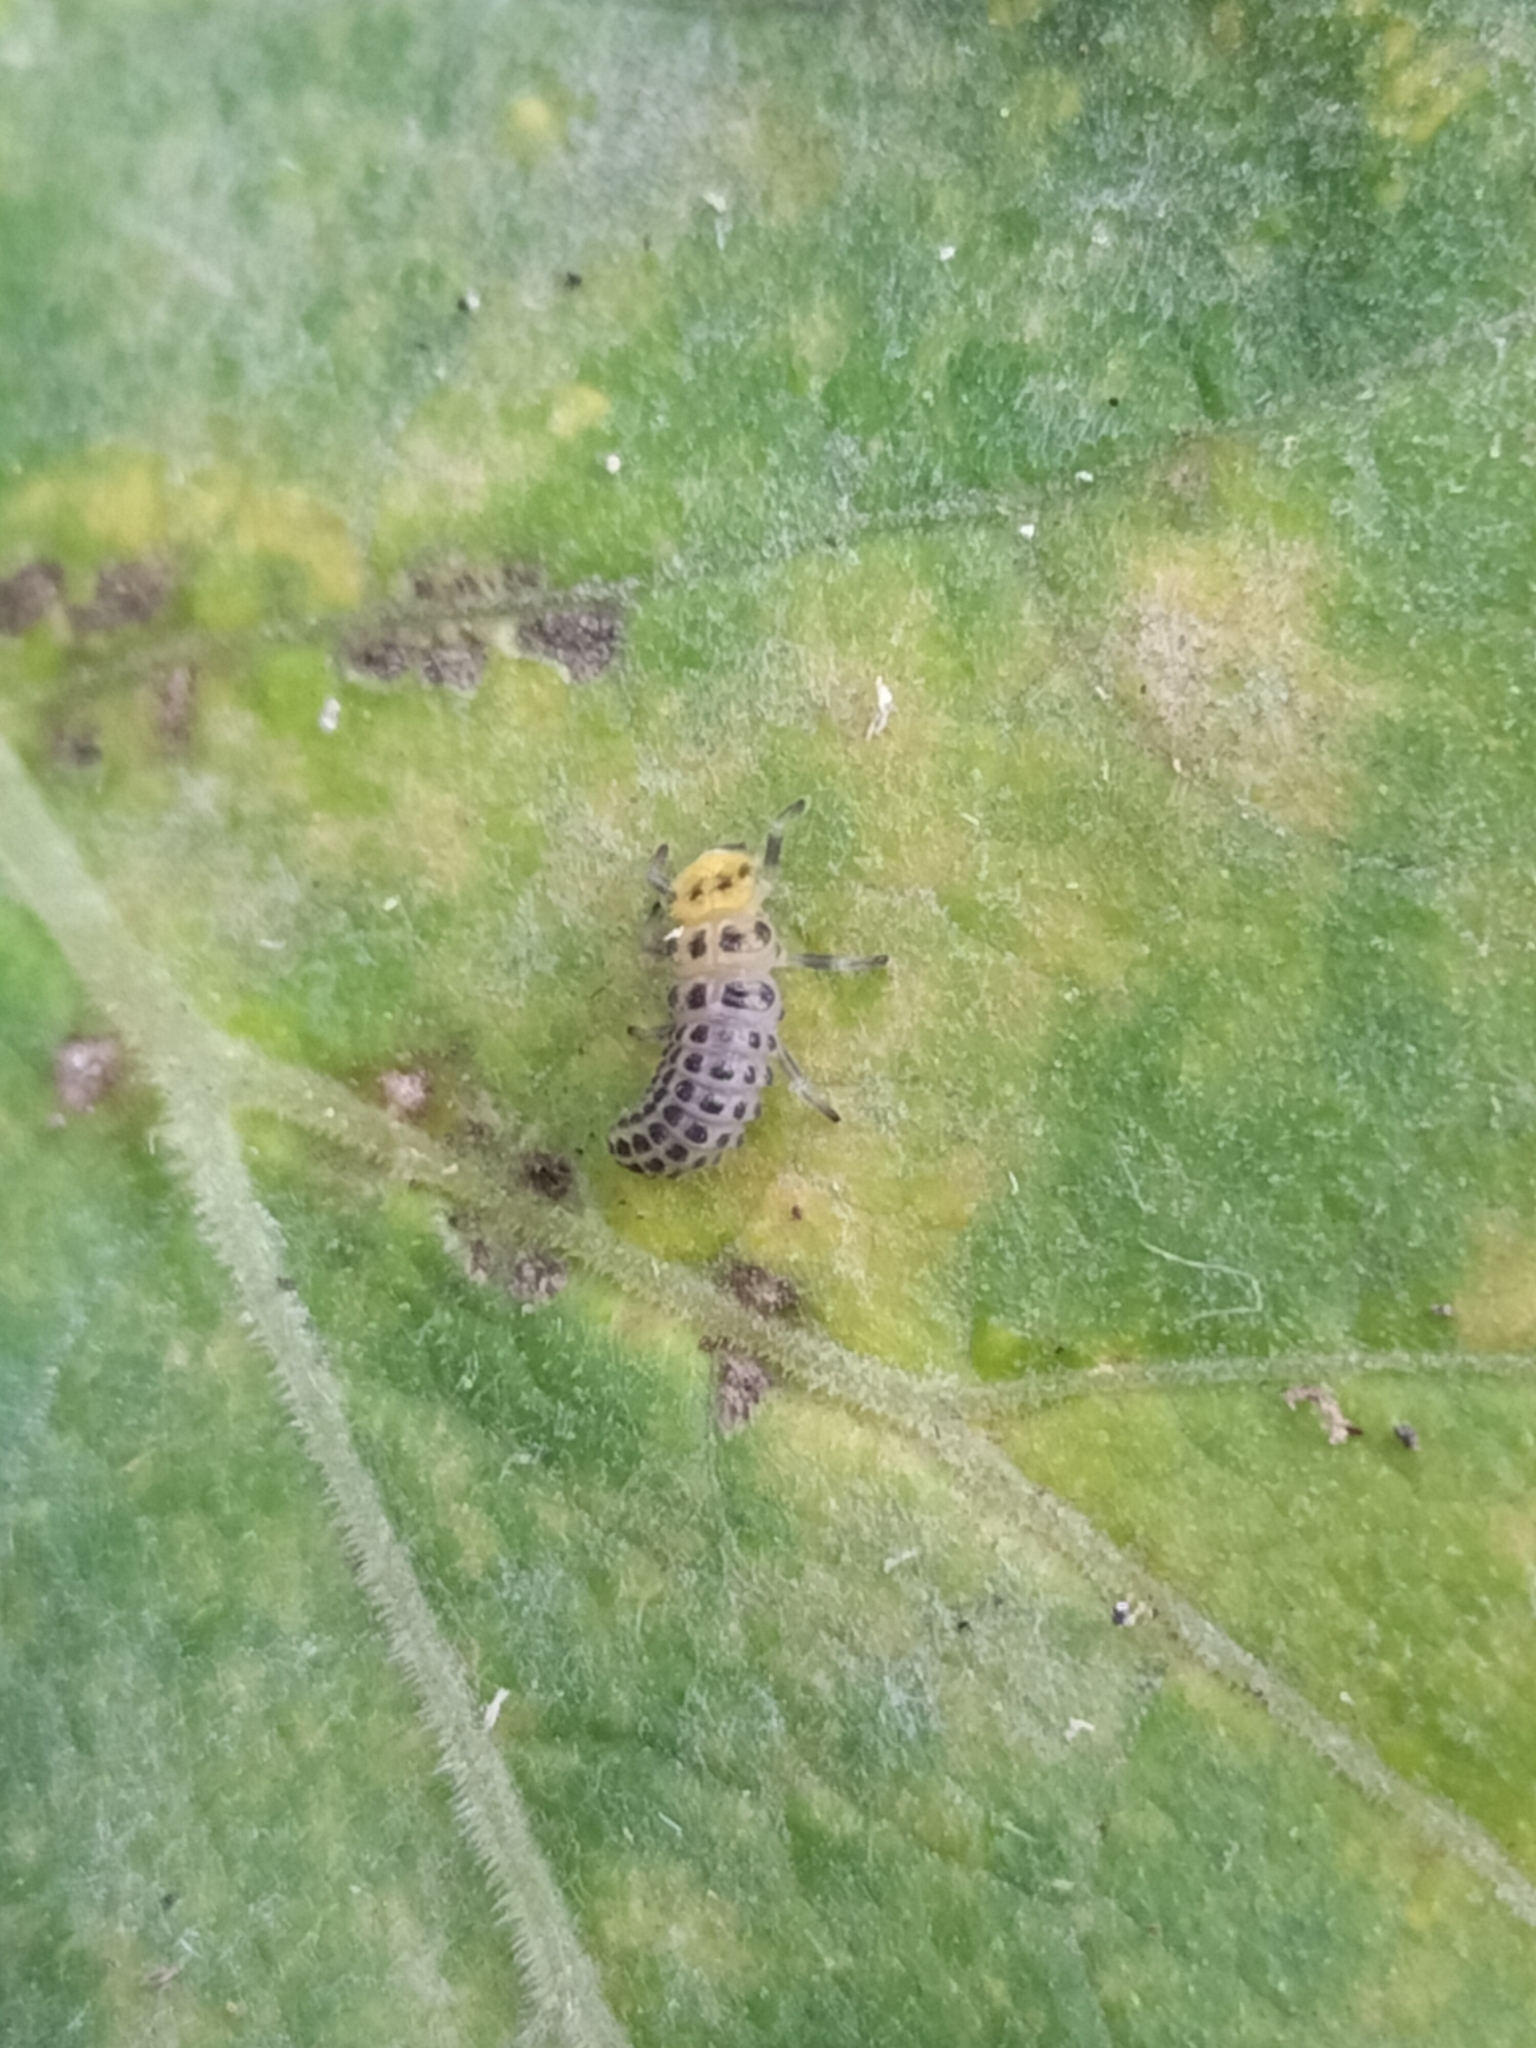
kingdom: Animalia
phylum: Arthropoda
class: Insecta
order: Coleoptera
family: Coccinellidae
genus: Illeis
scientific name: Illeis galbula
